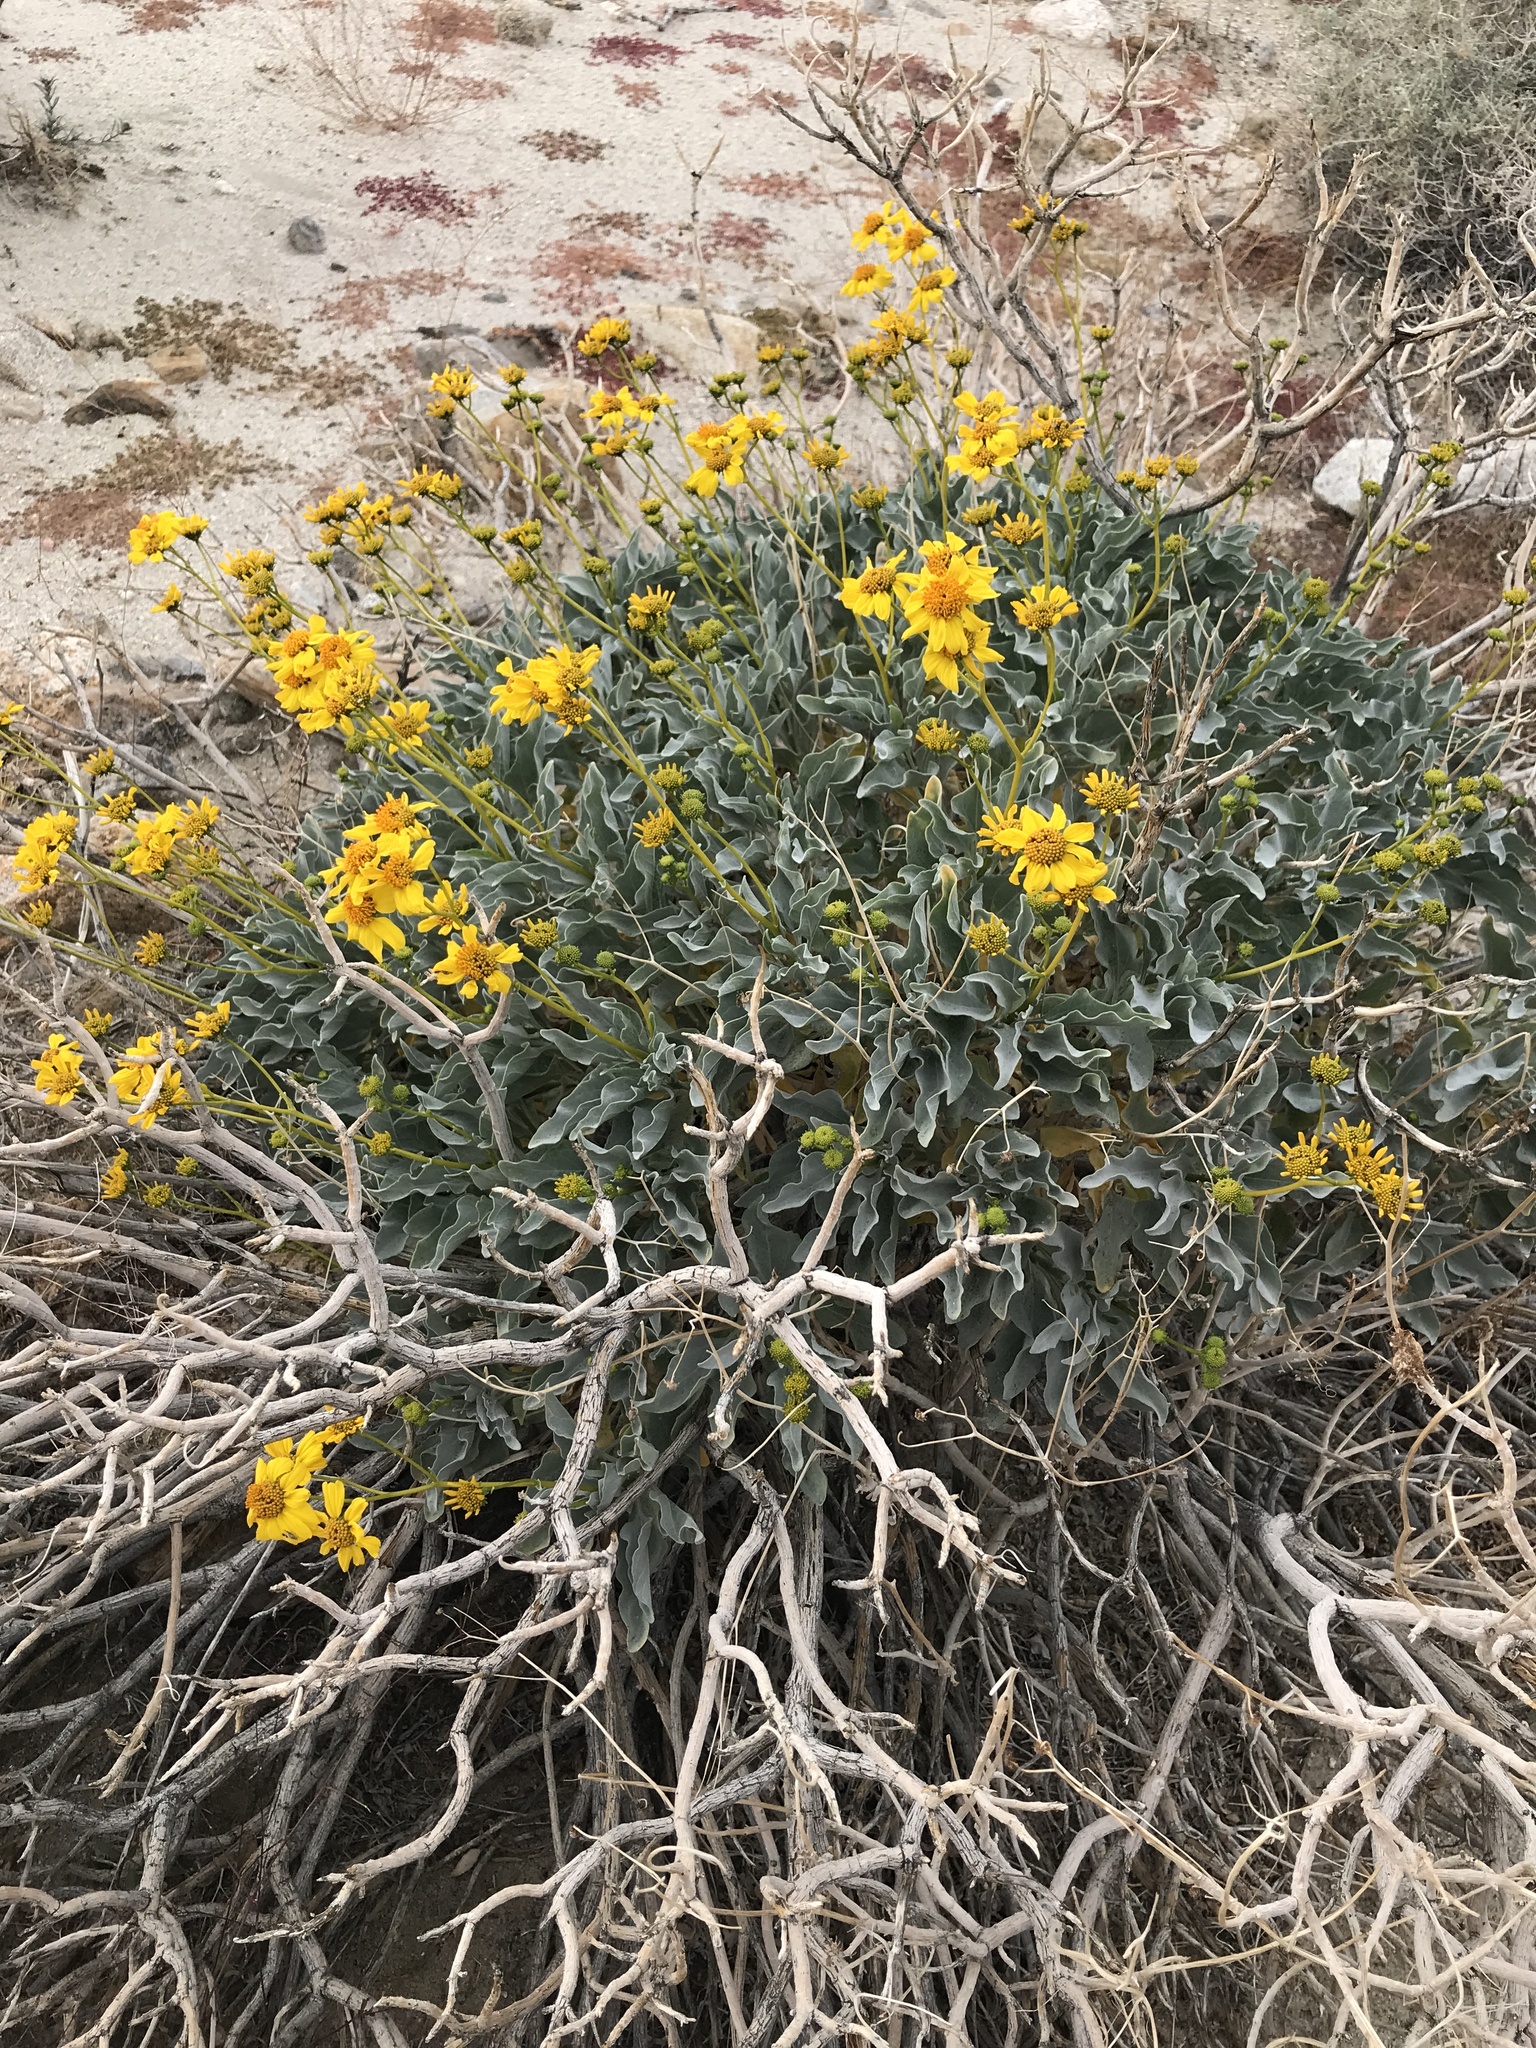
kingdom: Plantae
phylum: Tracheophyta
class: Magnoliopsida
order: Asterales
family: Asteraceae
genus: Encelia
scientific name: Encelia farinosa
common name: Brittlebush
